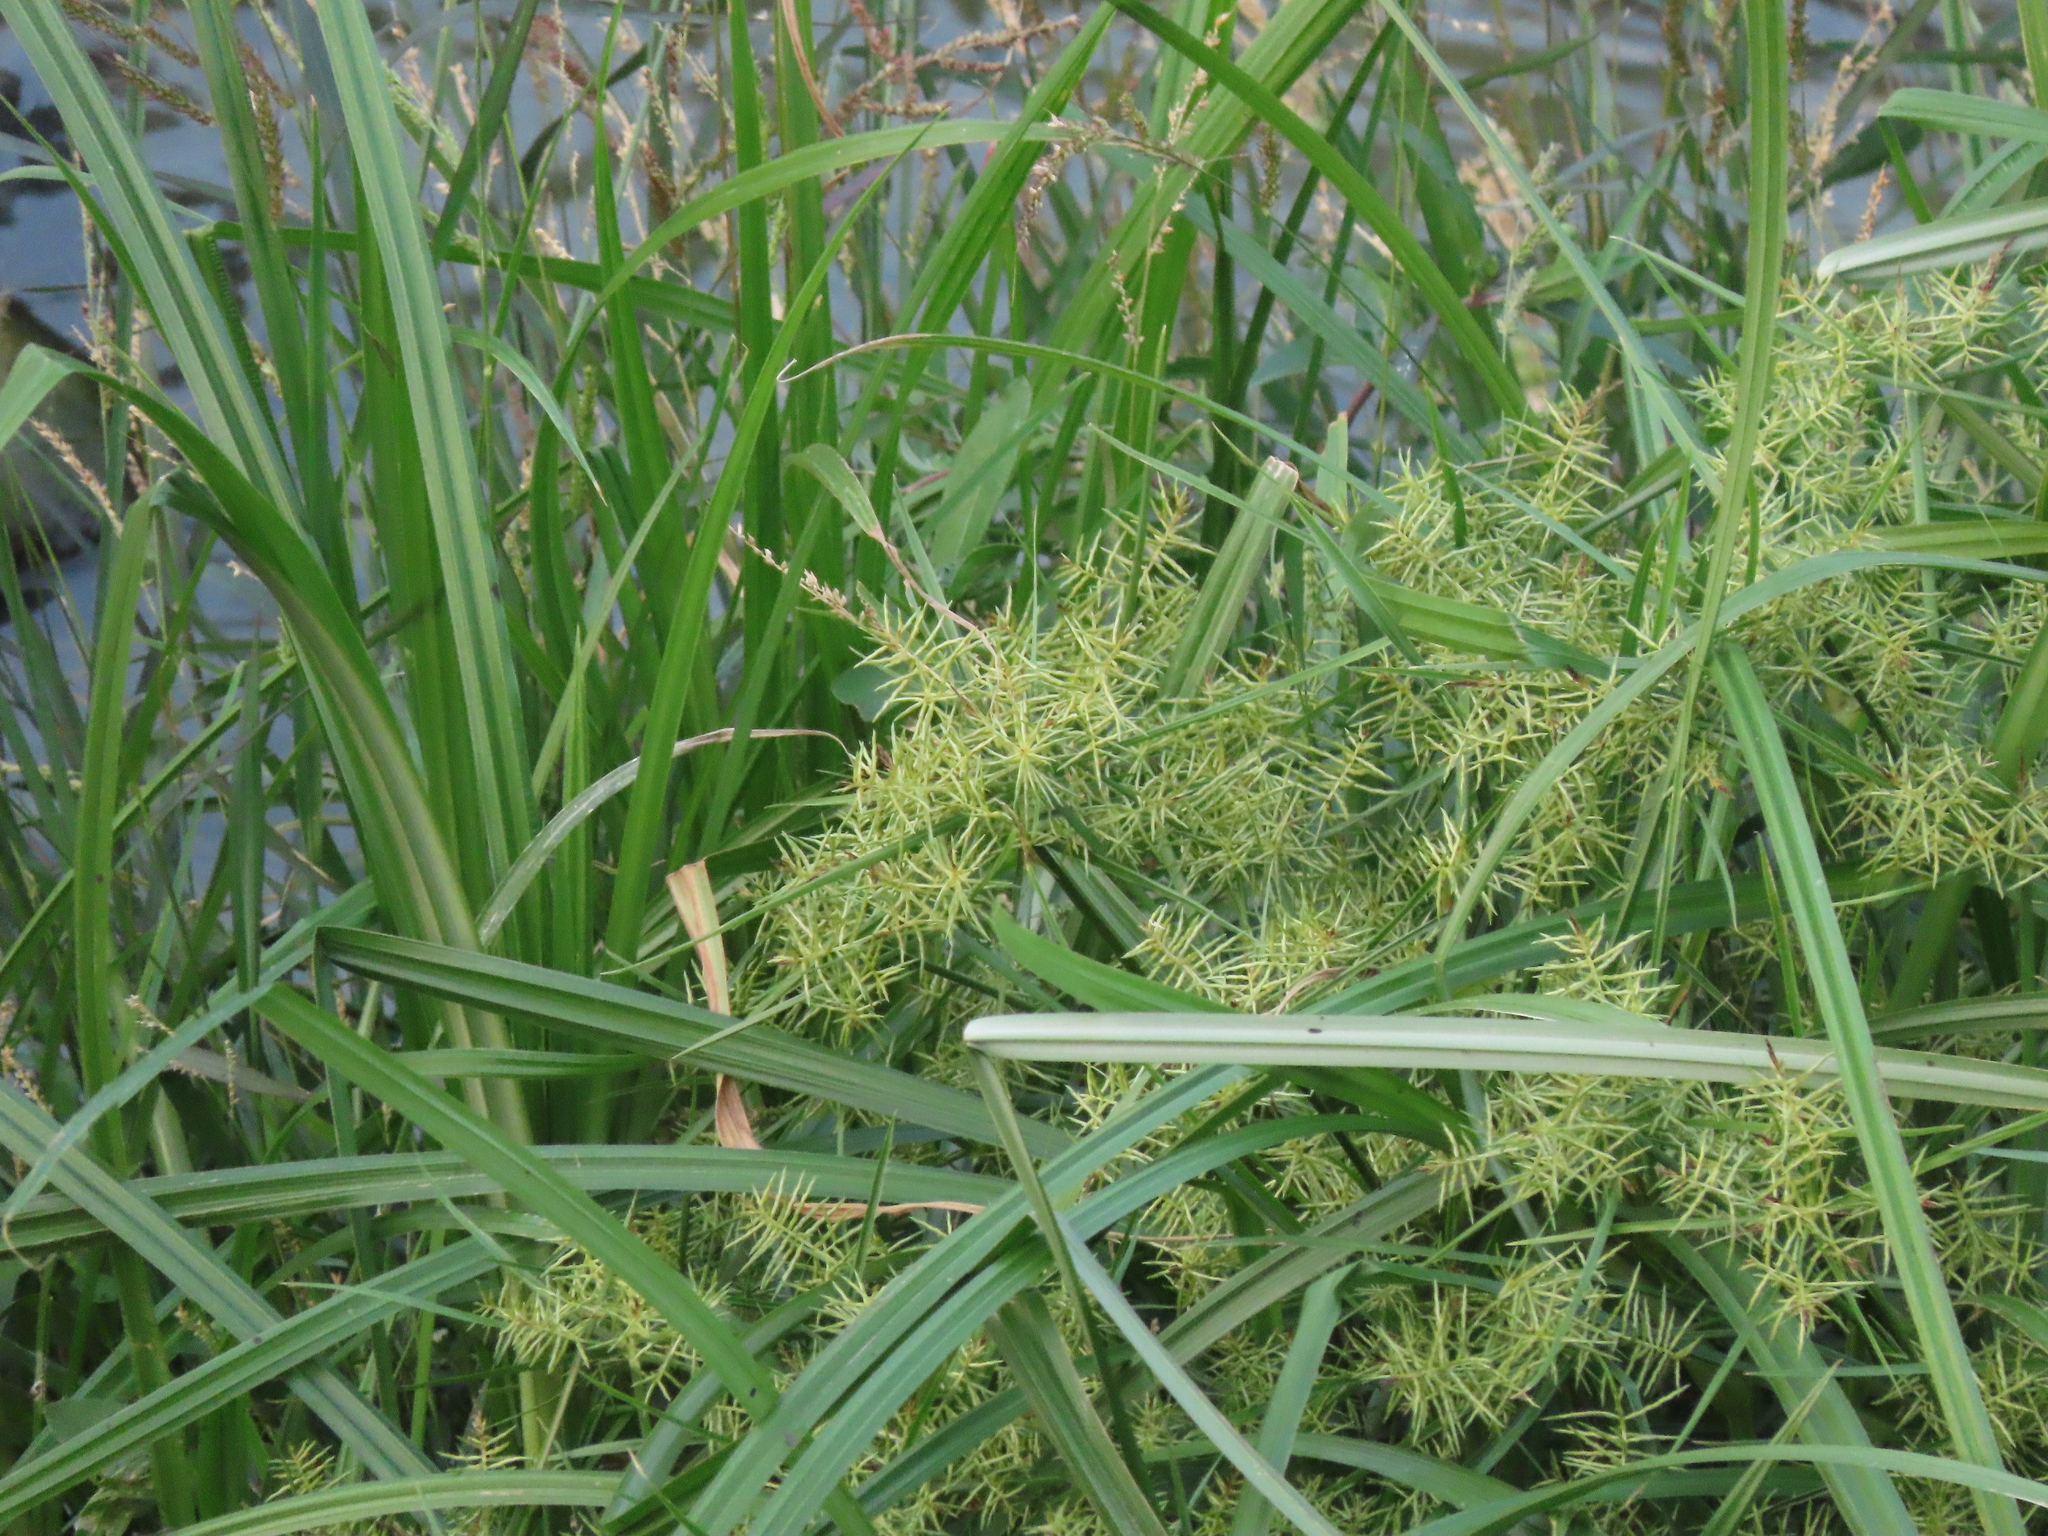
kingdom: Plantae
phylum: Tracheophyta
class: Liliopsida
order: Poales
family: Cyperaceae
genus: Cyperus
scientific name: Cyperus odoratus
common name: Fragrant flatsedge
